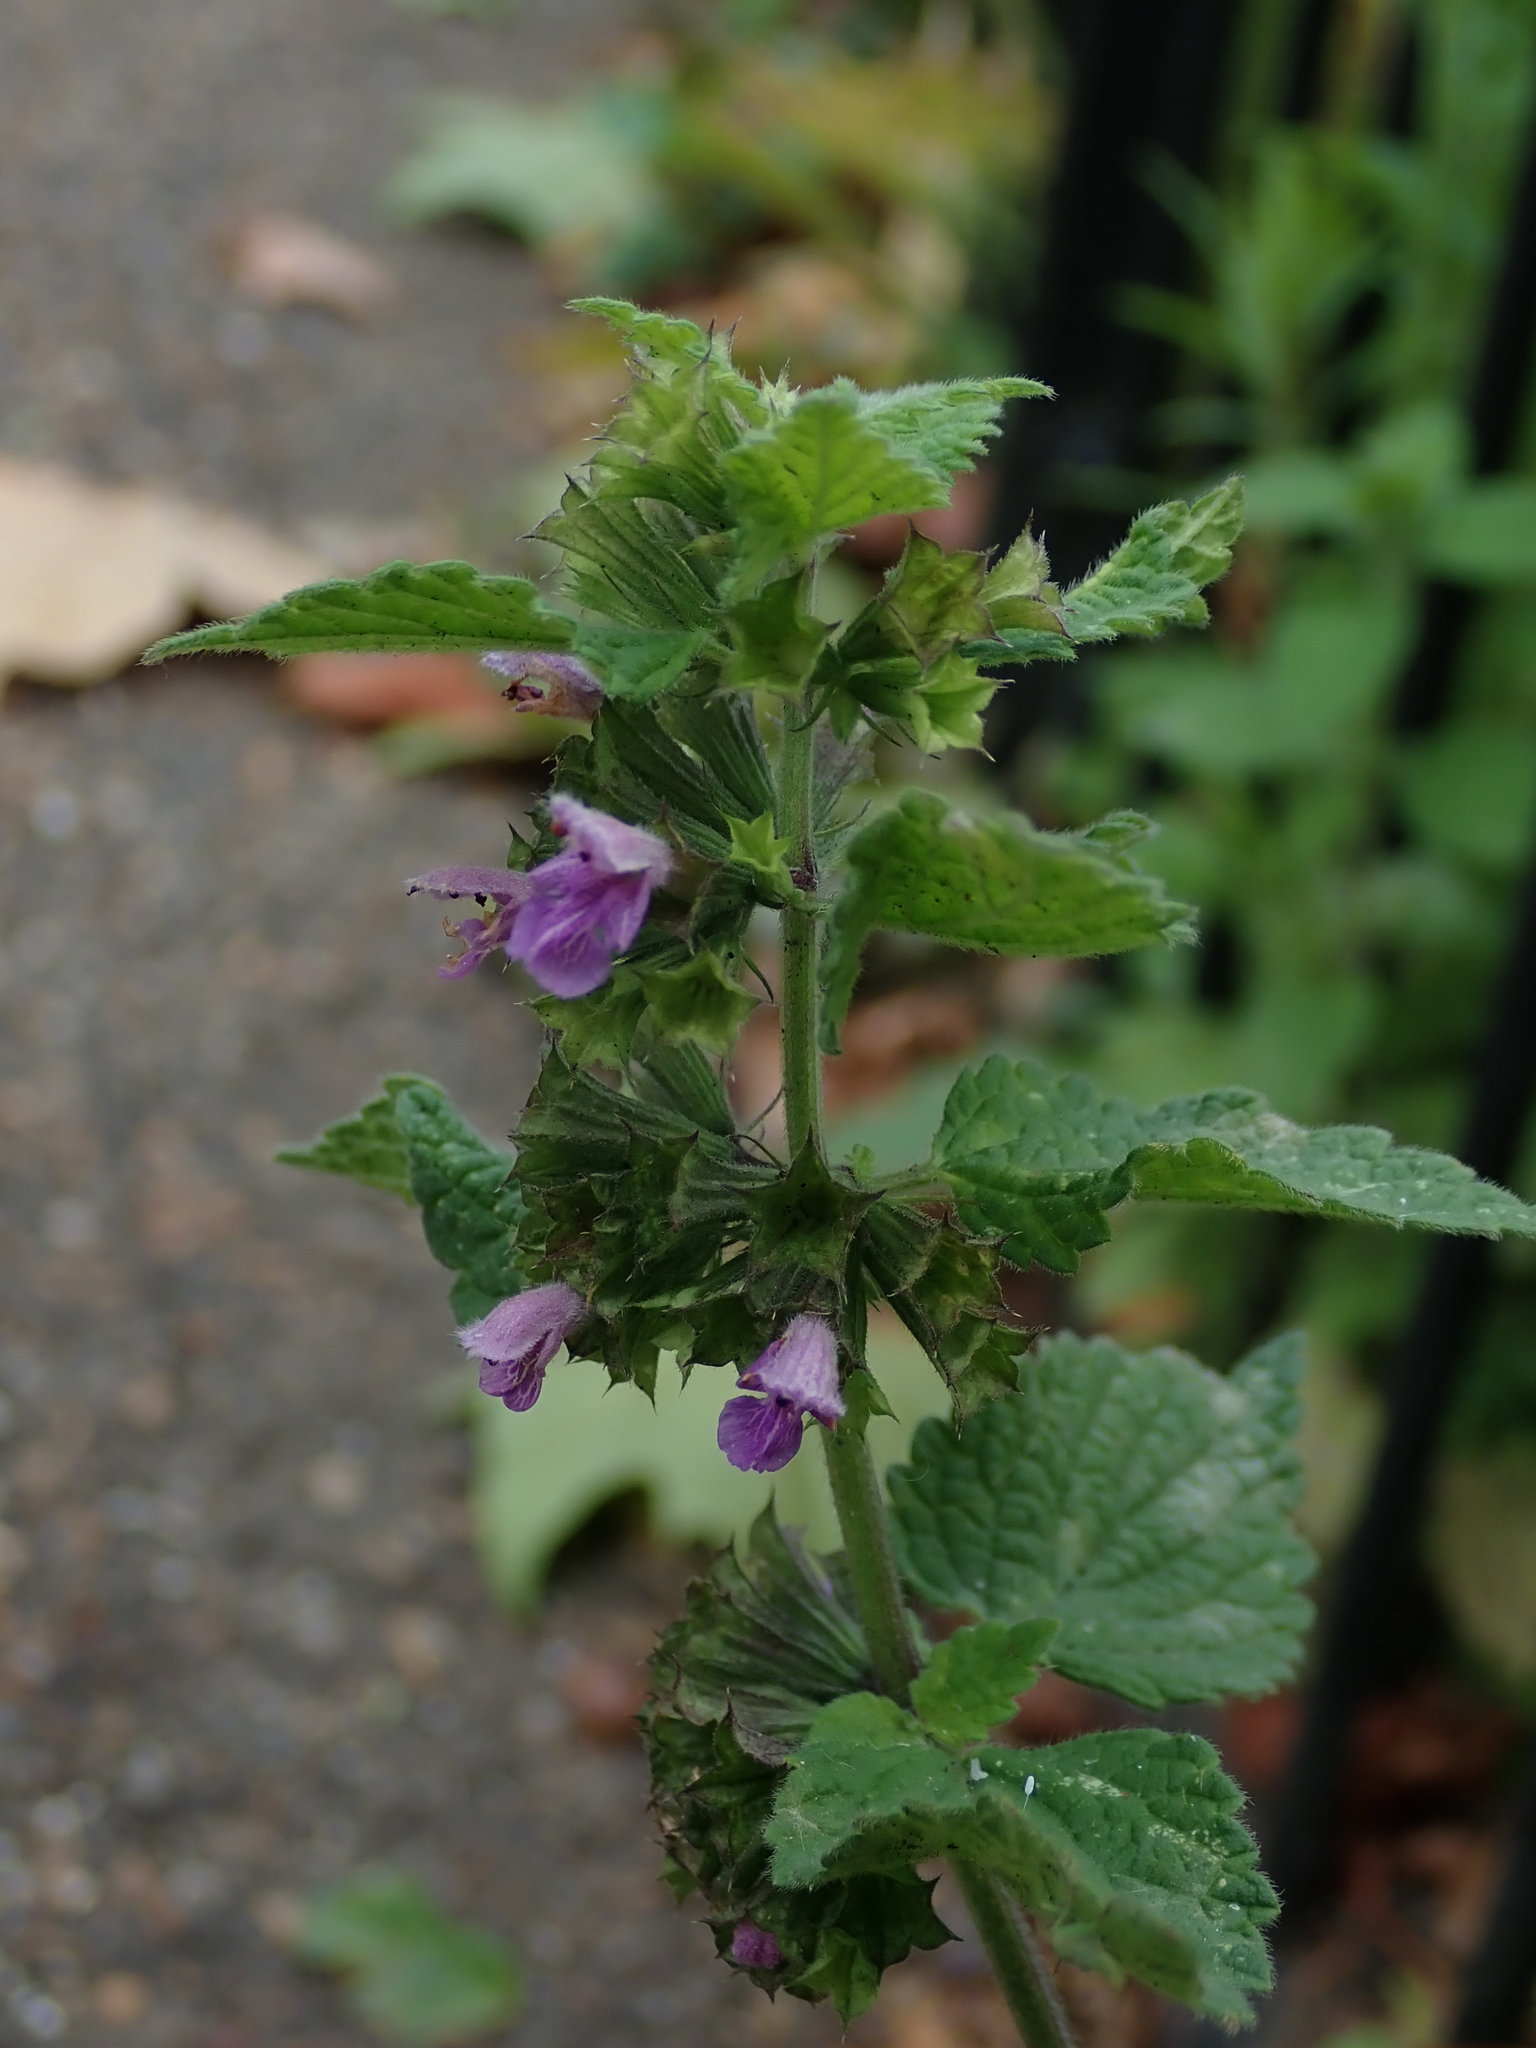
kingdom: Plantae
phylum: Tracheophyta
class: Magnoliopsida
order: Lamiales
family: Lamiaceae
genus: Ballota
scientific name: Ballota nigra
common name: Black horehound
